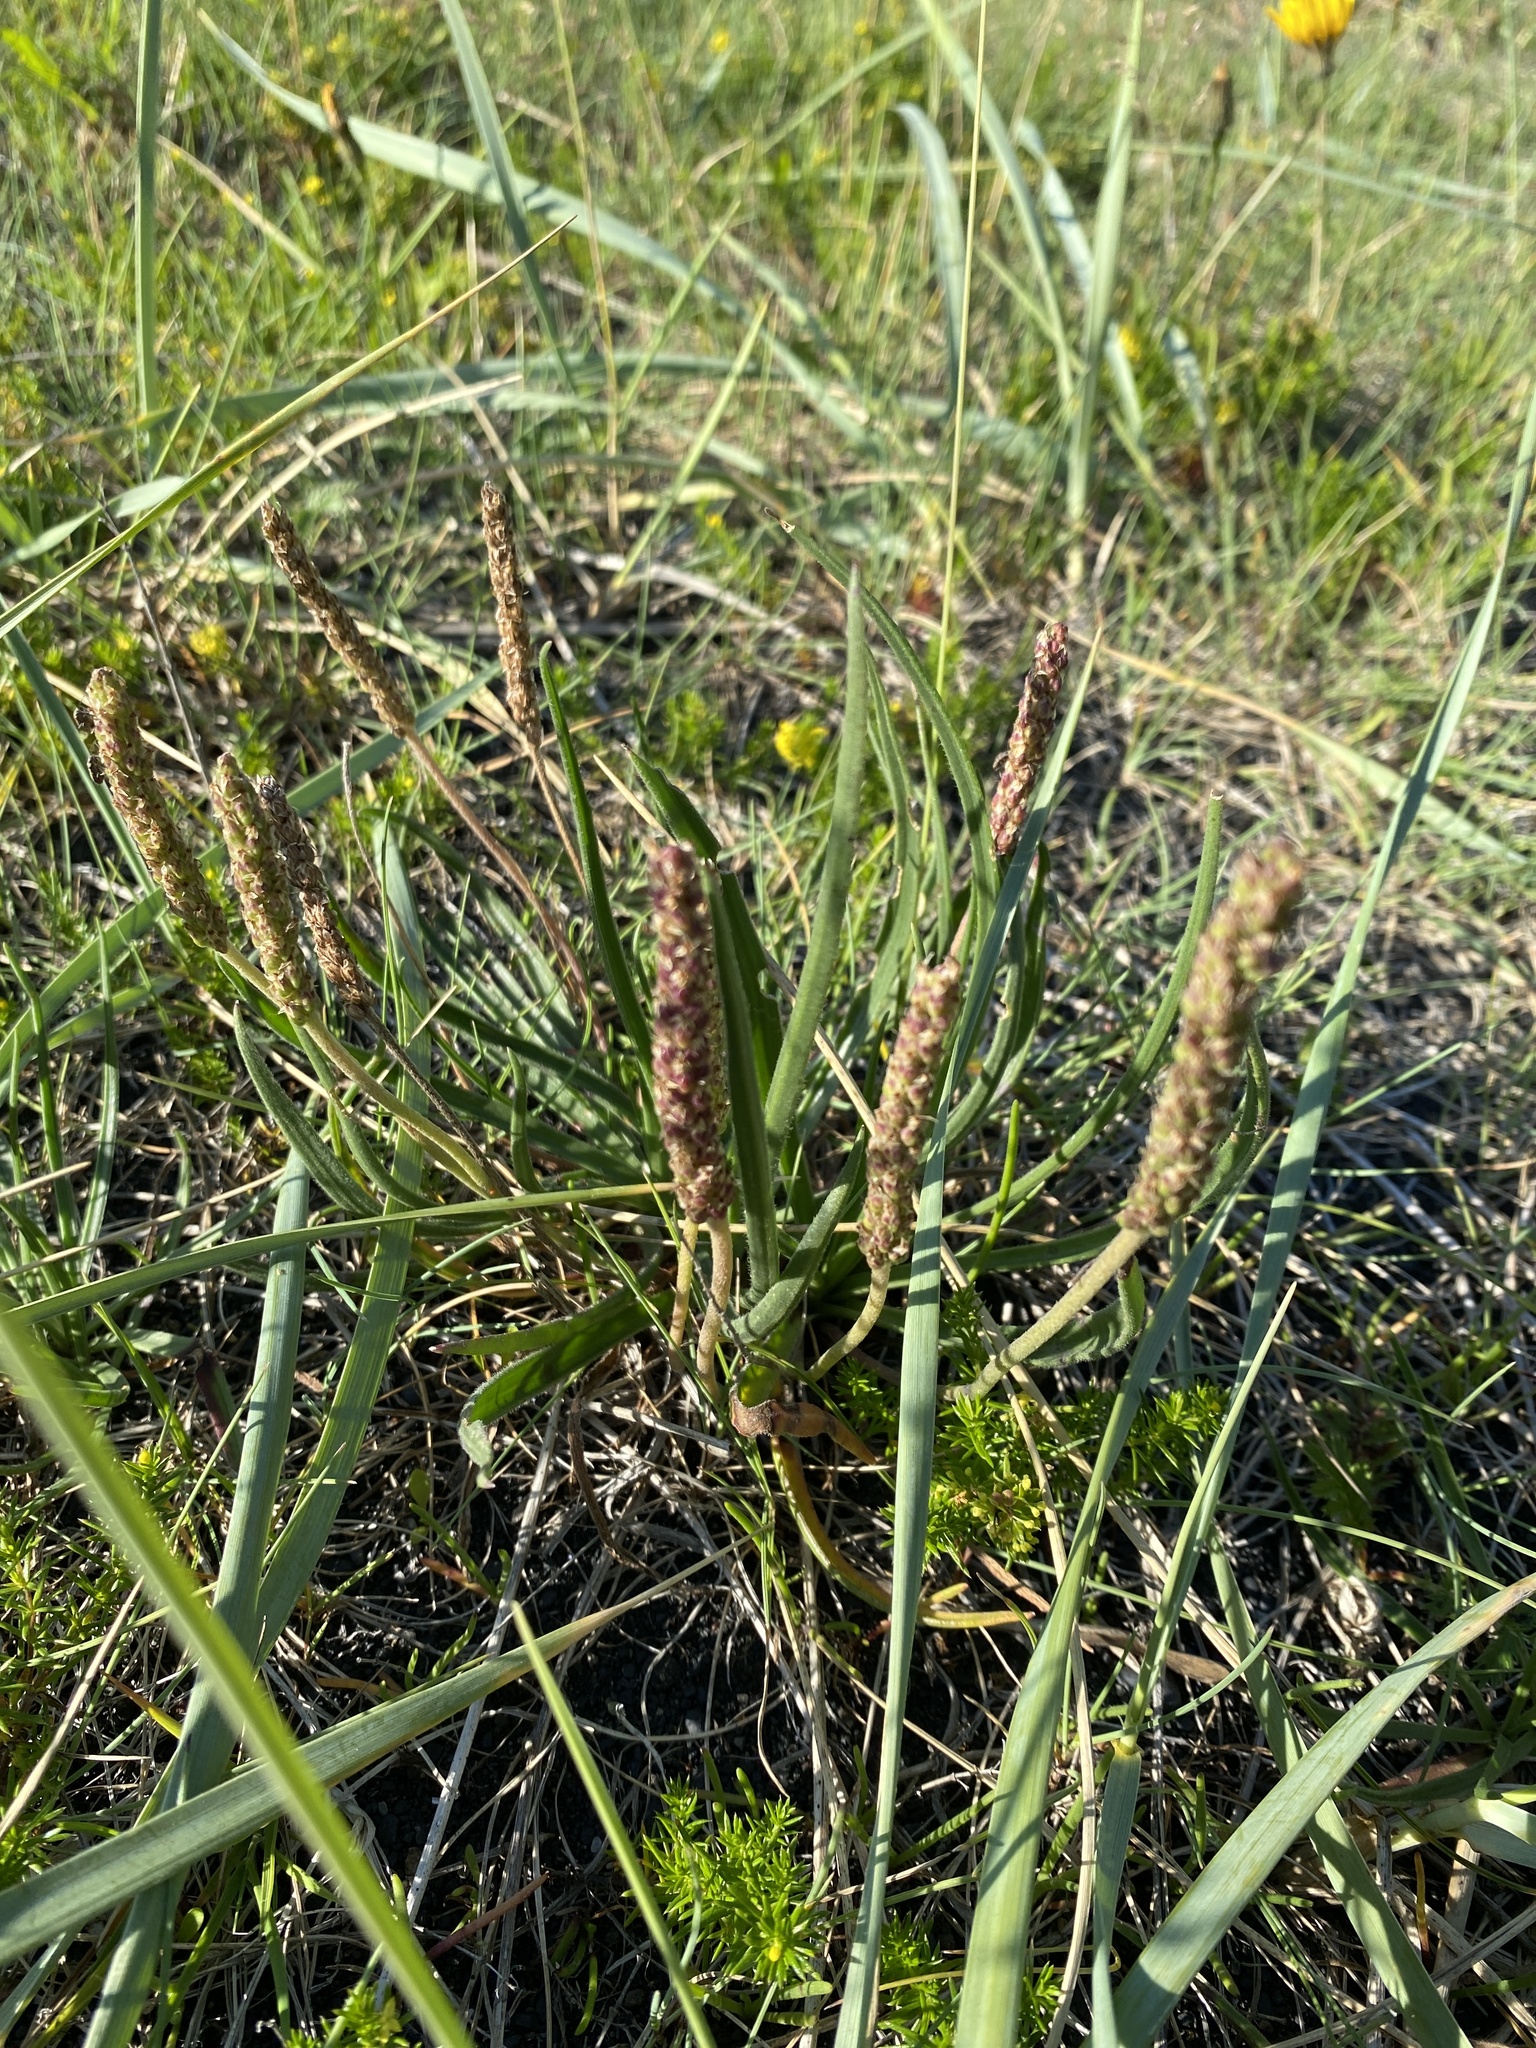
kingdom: Plantae
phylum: Tracheophyta
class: Magnoliopsida
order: Lamiales
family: Plantaginaceae
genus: Plantago
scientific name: Plantago maritima
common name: Sea plantain
